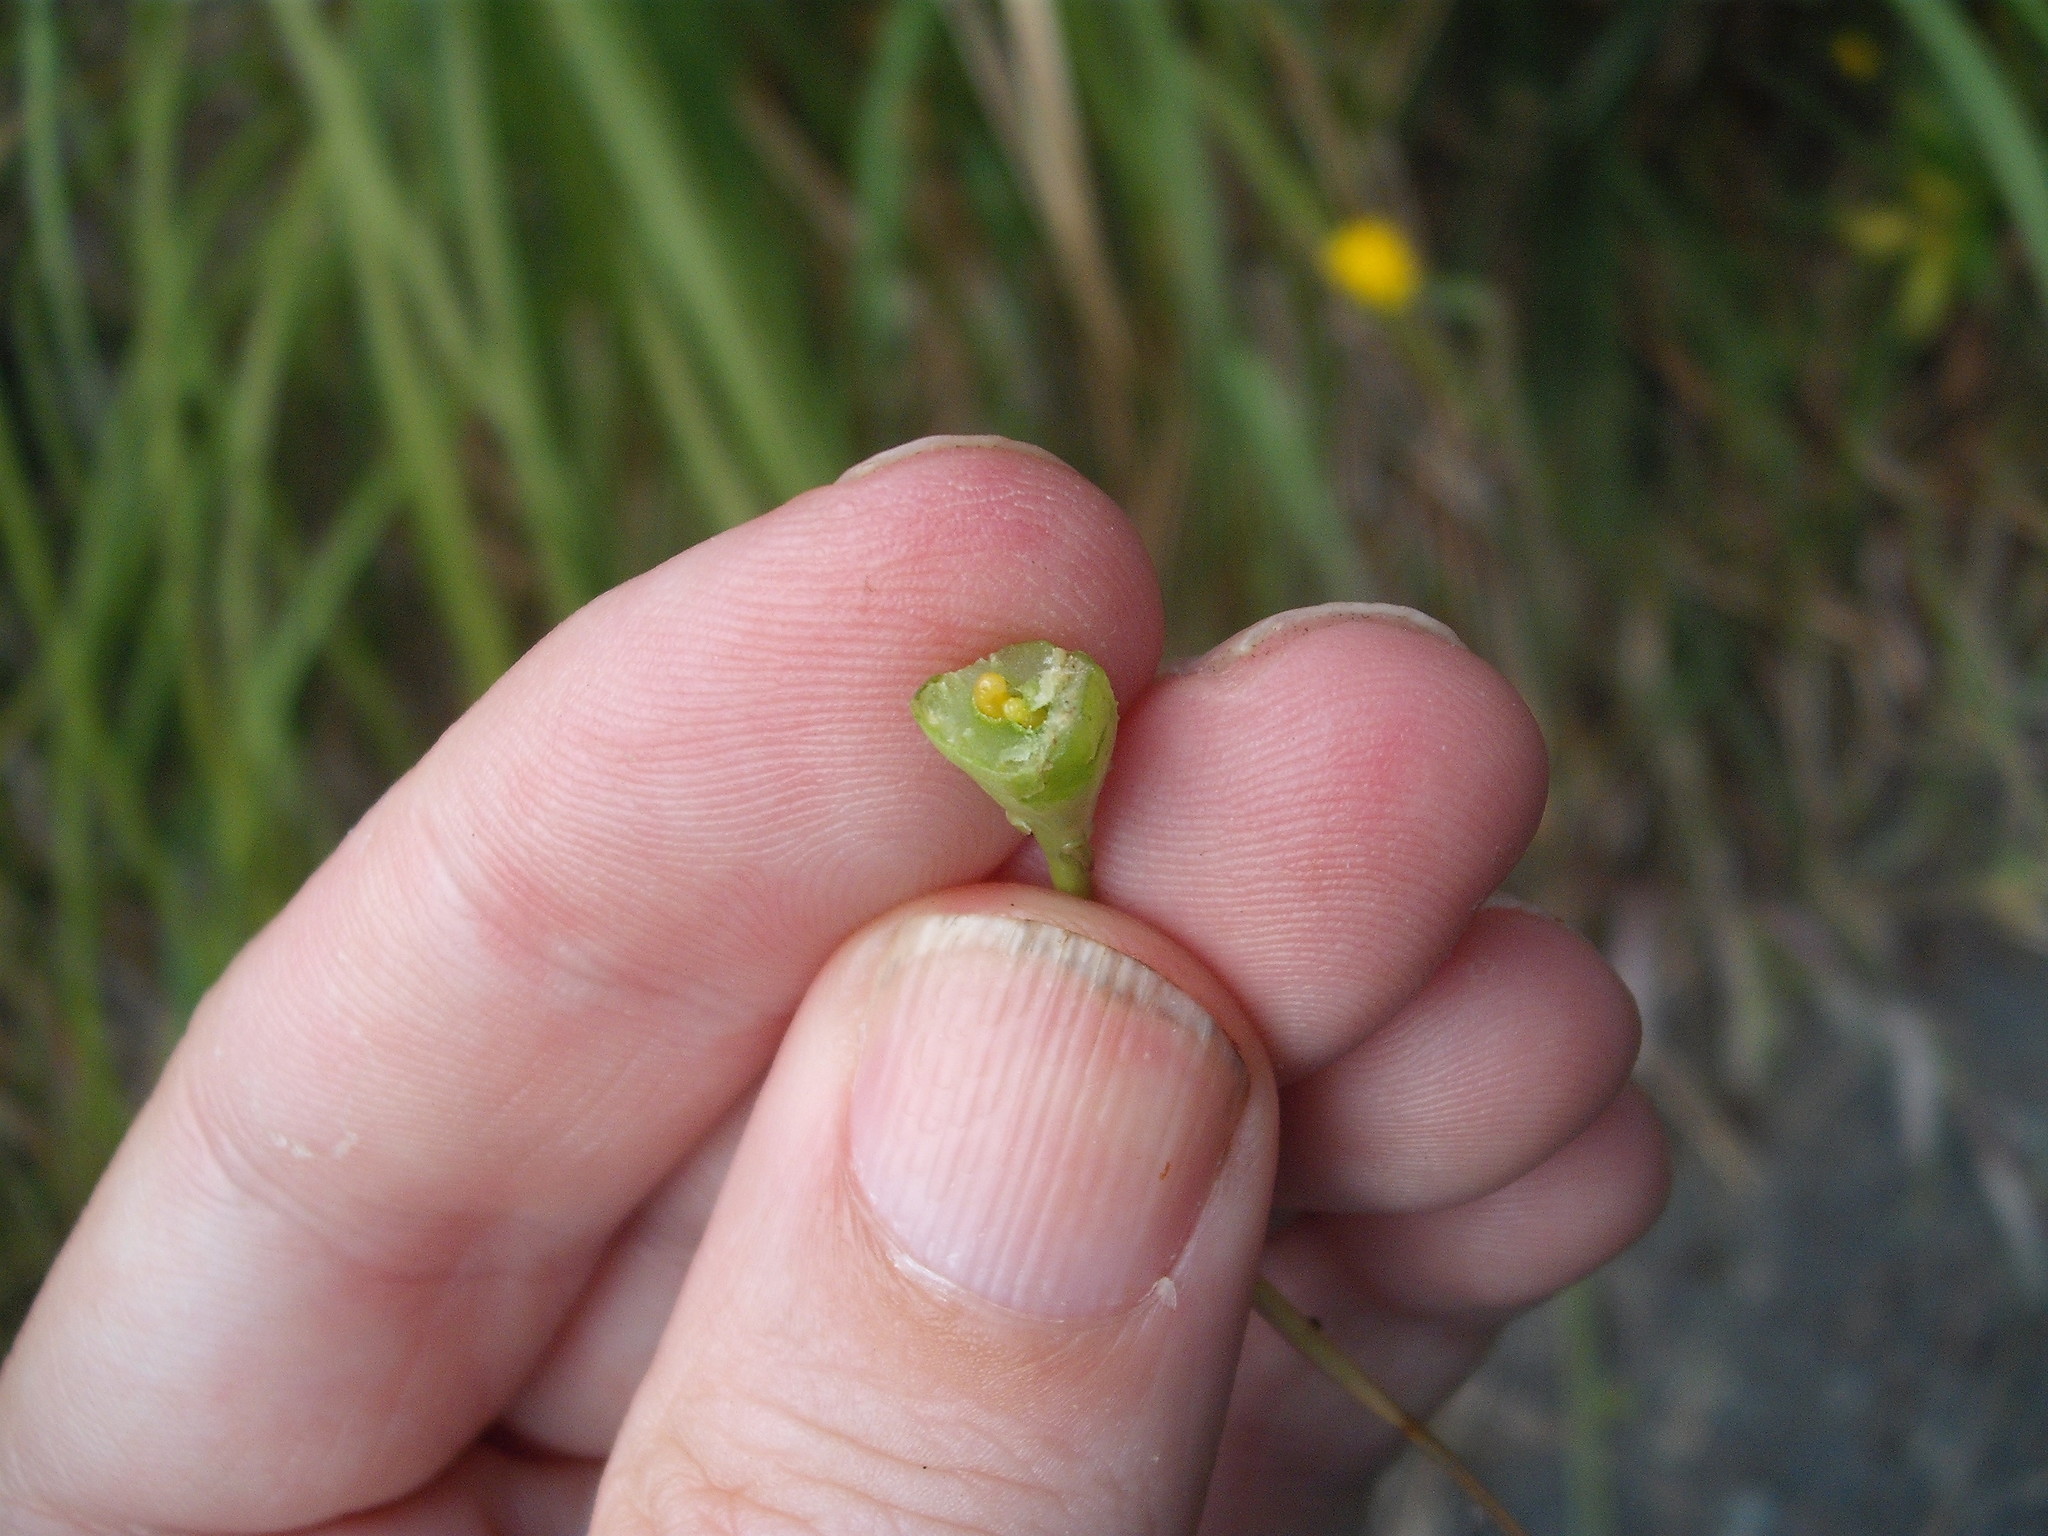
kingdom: Animalia
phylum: Arthropoda
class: Insecta
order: Hymenoptera
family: Cynipidae
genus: Phanacis
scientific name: Phanacis hypochoeridis
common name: Gall wasp
